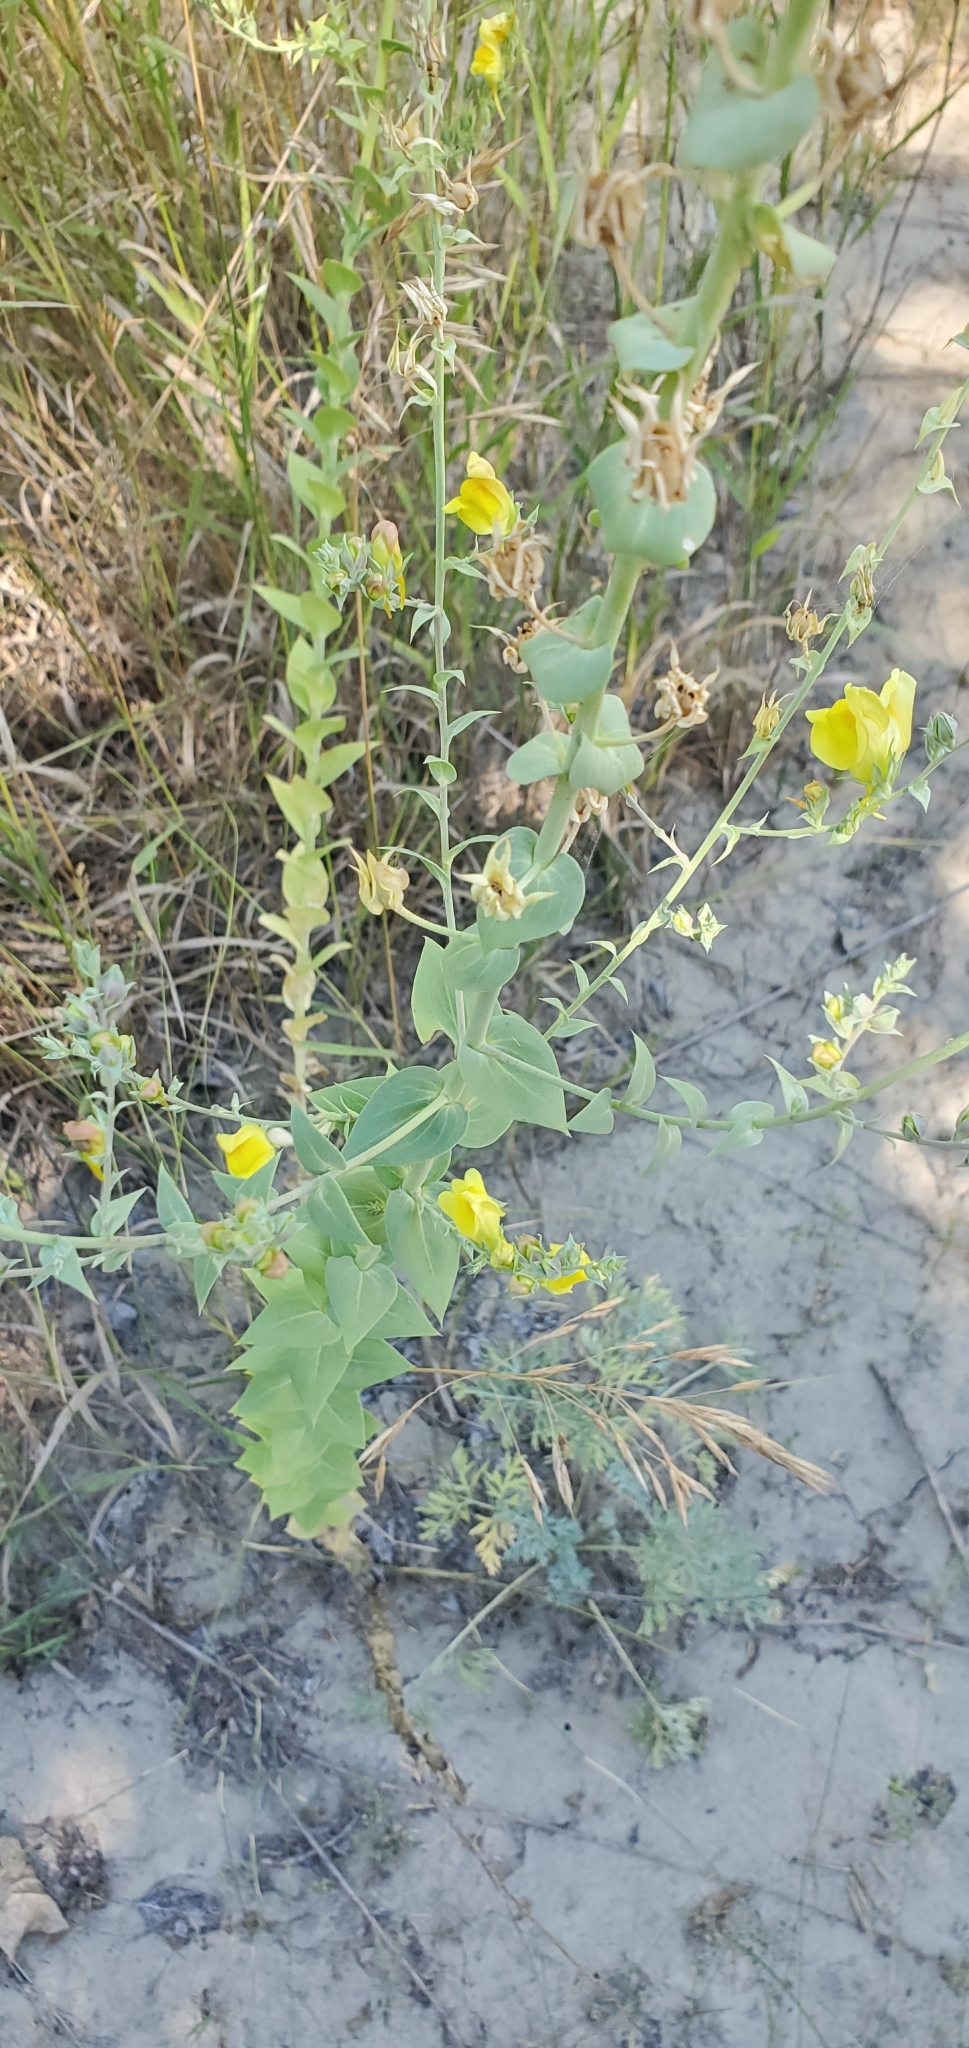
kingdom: Plantae
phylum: Tracheophyta
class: Magnoliopsida
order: Lamiales
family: Plantaginaceae
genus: Linaria
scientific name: Linaria dalmatica
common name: Dalmatian toadflax
